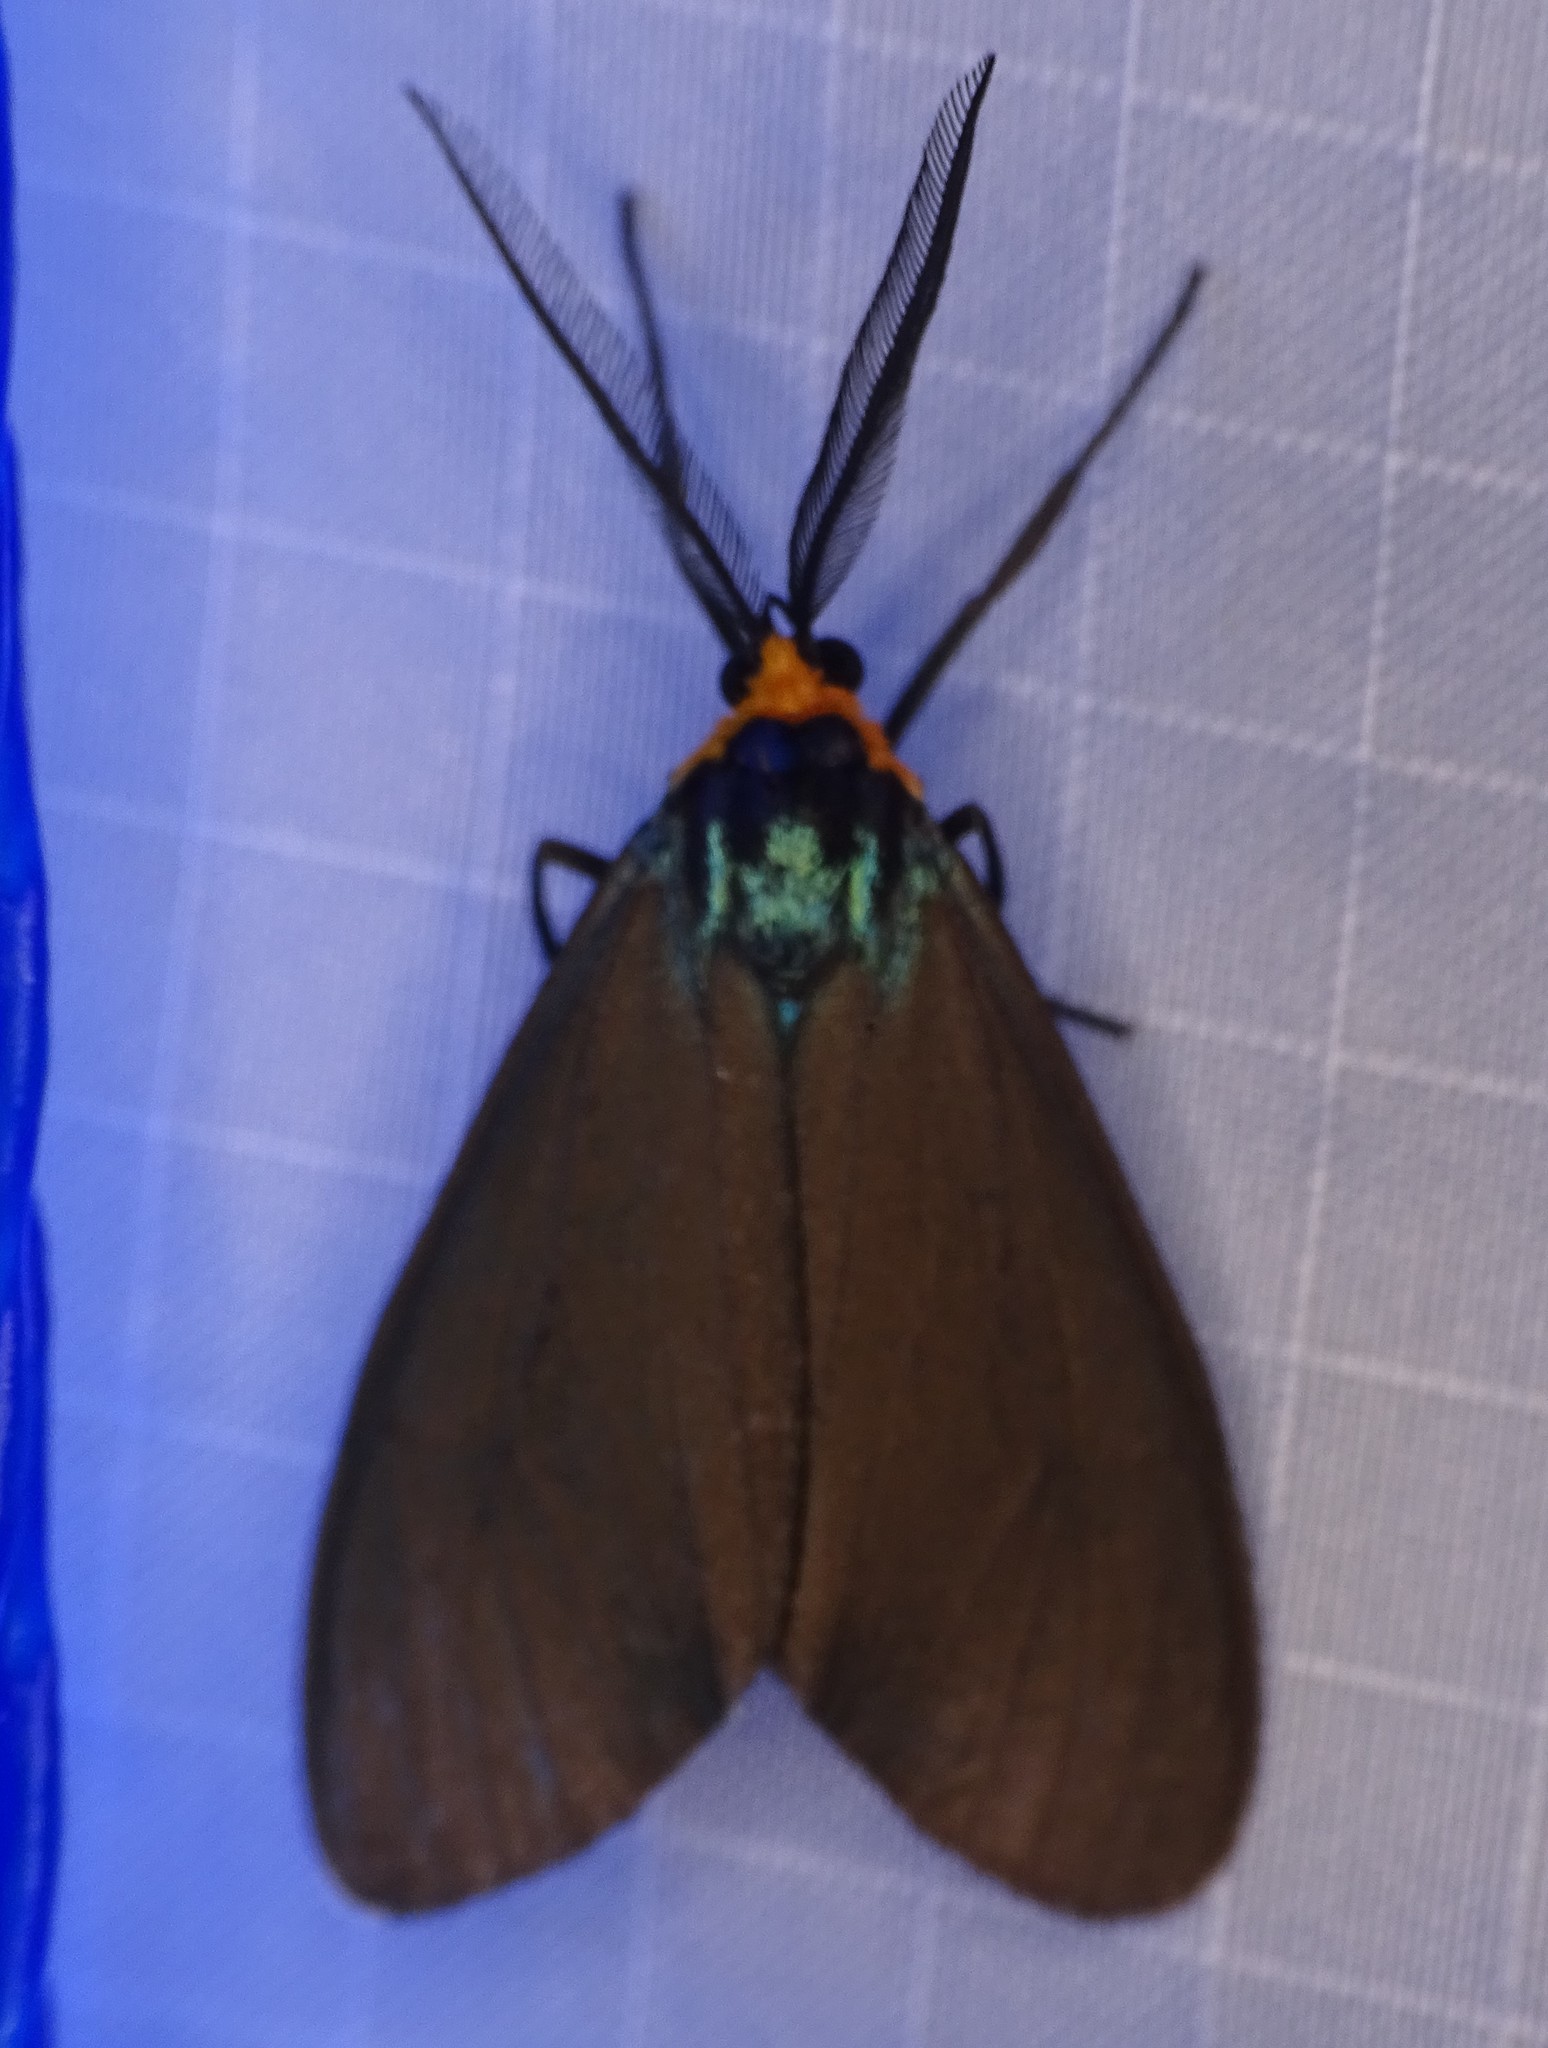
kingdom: Animalia
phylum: Arthropoda
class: Insecta
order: Lepidoptera
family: Erebidae
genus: Ctenucha
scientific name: Ctenucha virginica
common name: Virginia ctenucha moth
